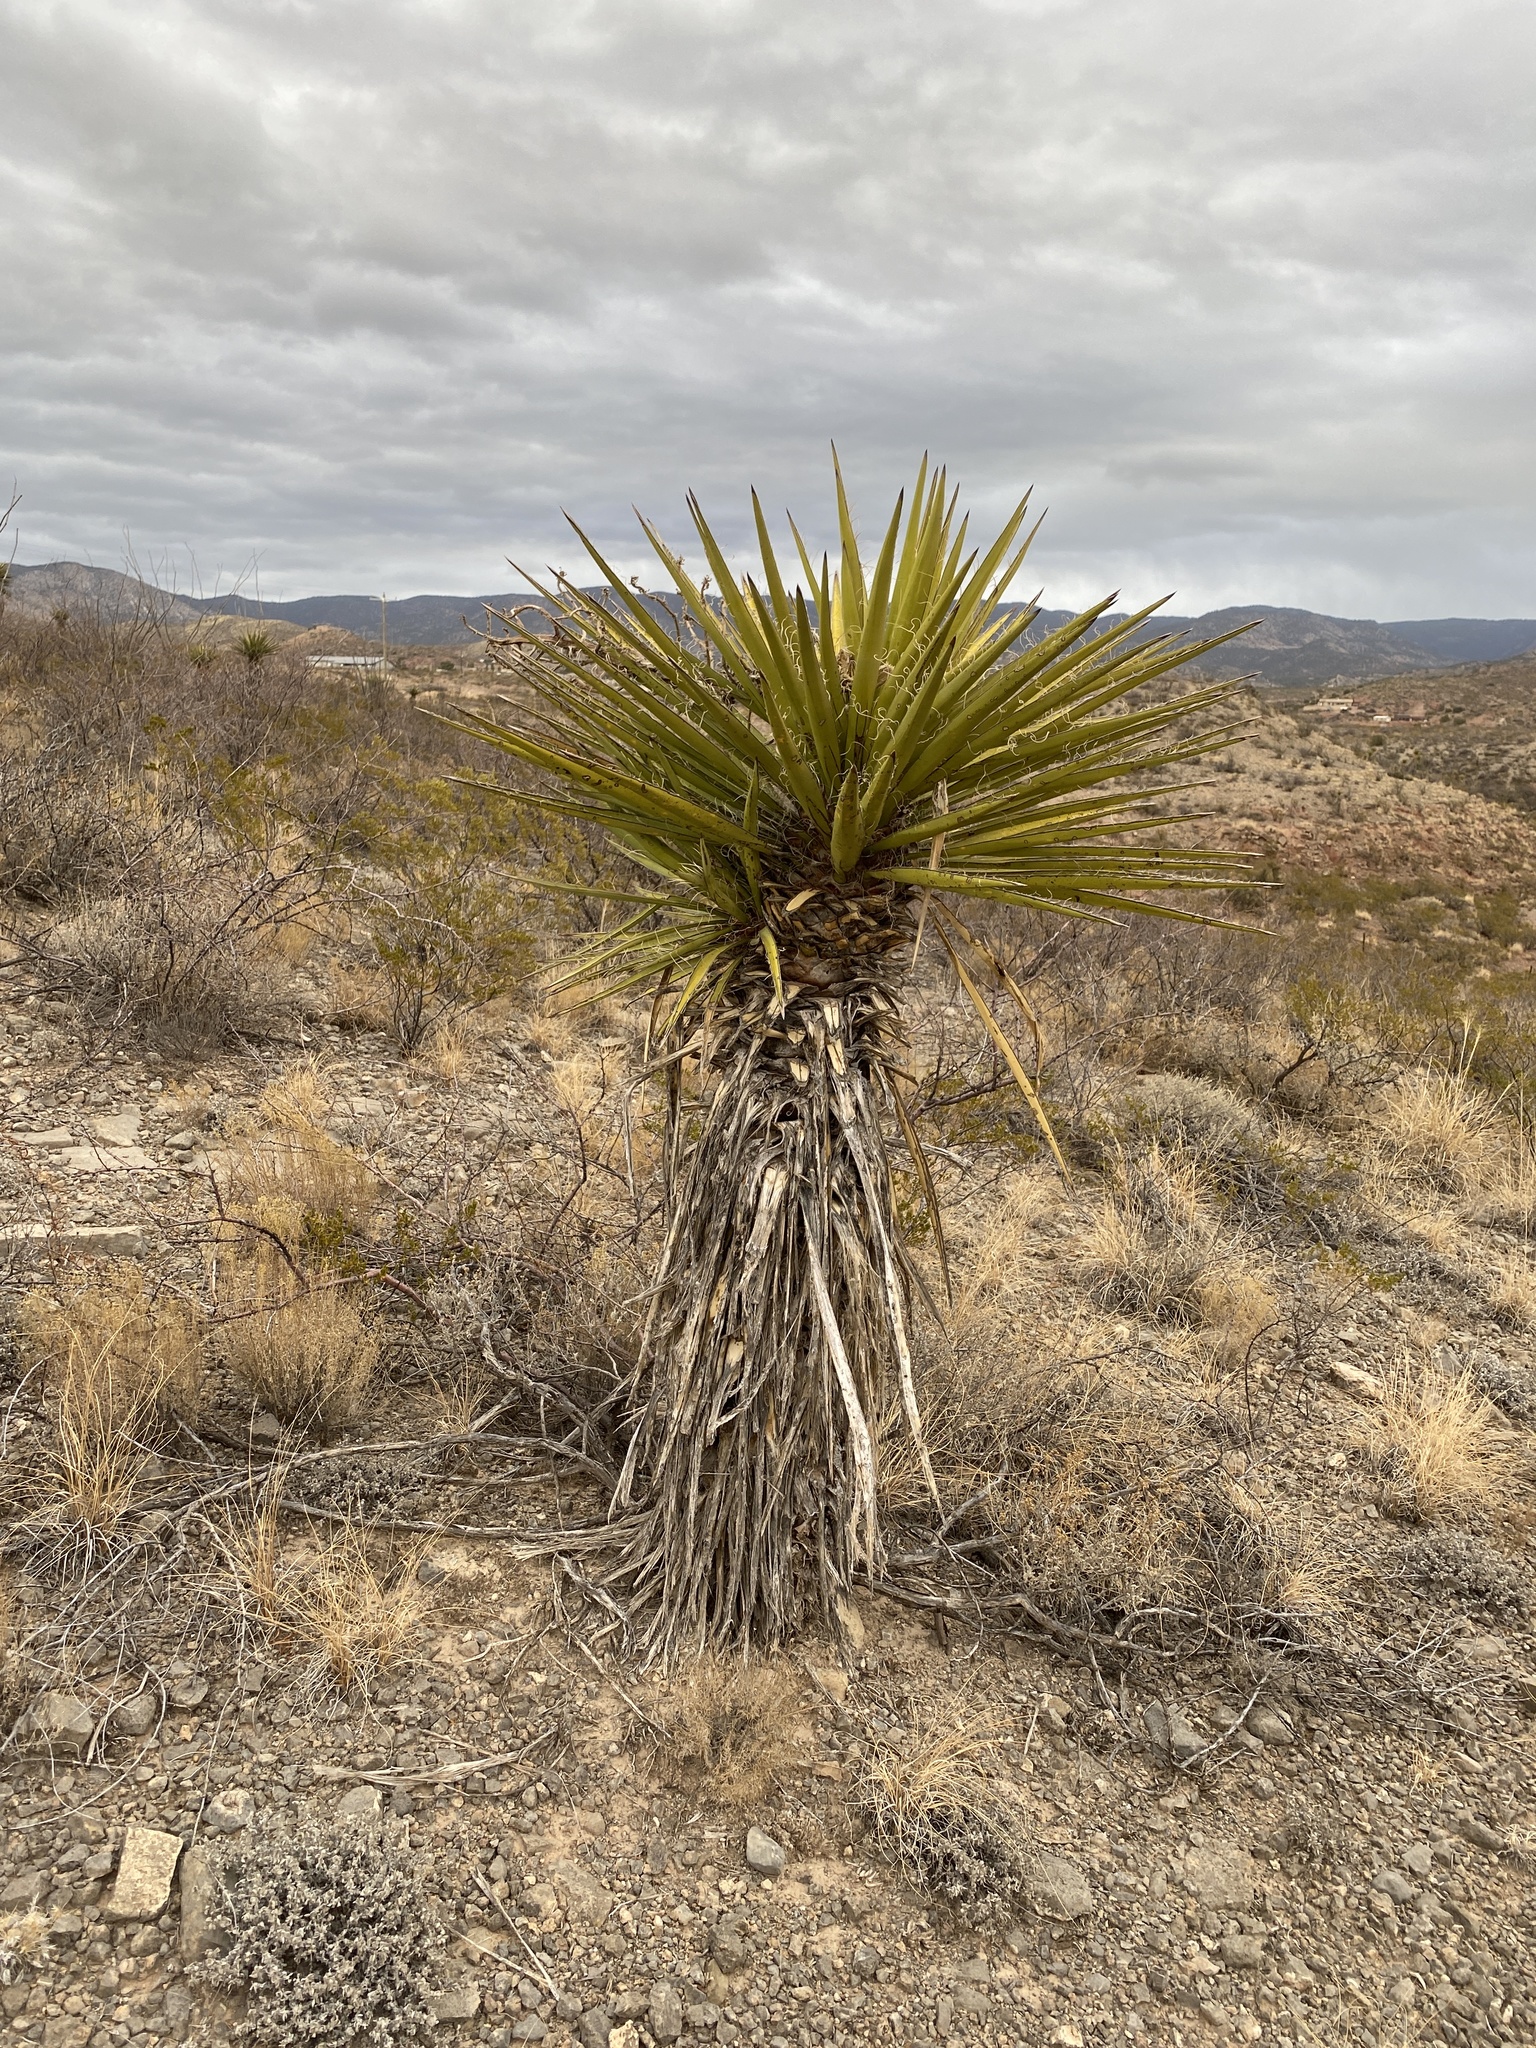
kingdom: Plantae
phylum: Tracheophyta
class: Liliopsida
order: Asparagales
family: Asparagaceae
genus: Yucca
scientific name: Yucca treculiana
